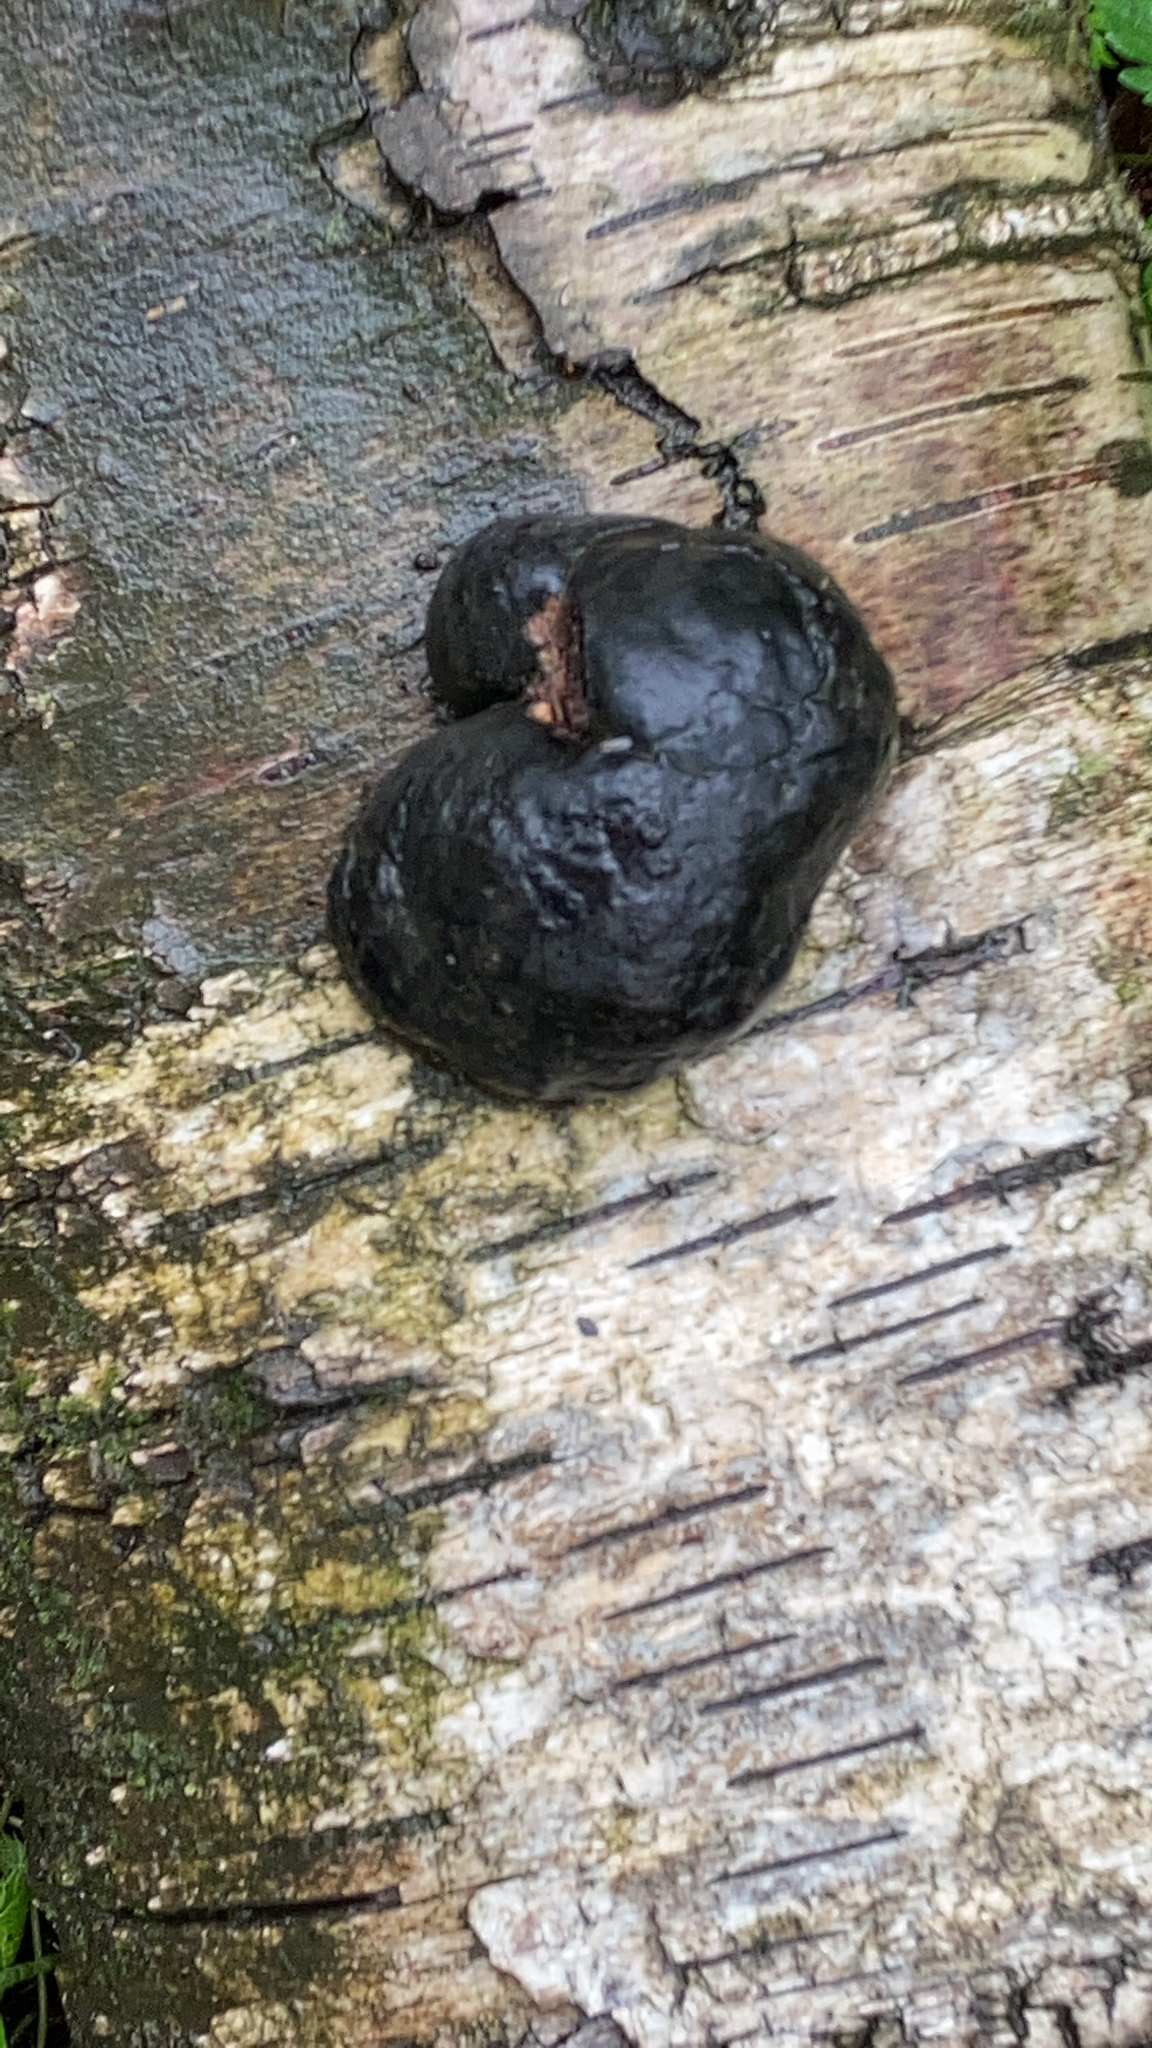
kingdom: Fungi
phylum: Ascomycota
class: Sordariomycetes
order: Xylariales
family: Hypoxylaceae
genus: Daldinia
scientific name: Daldinia concentrica
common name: Cramp balls
